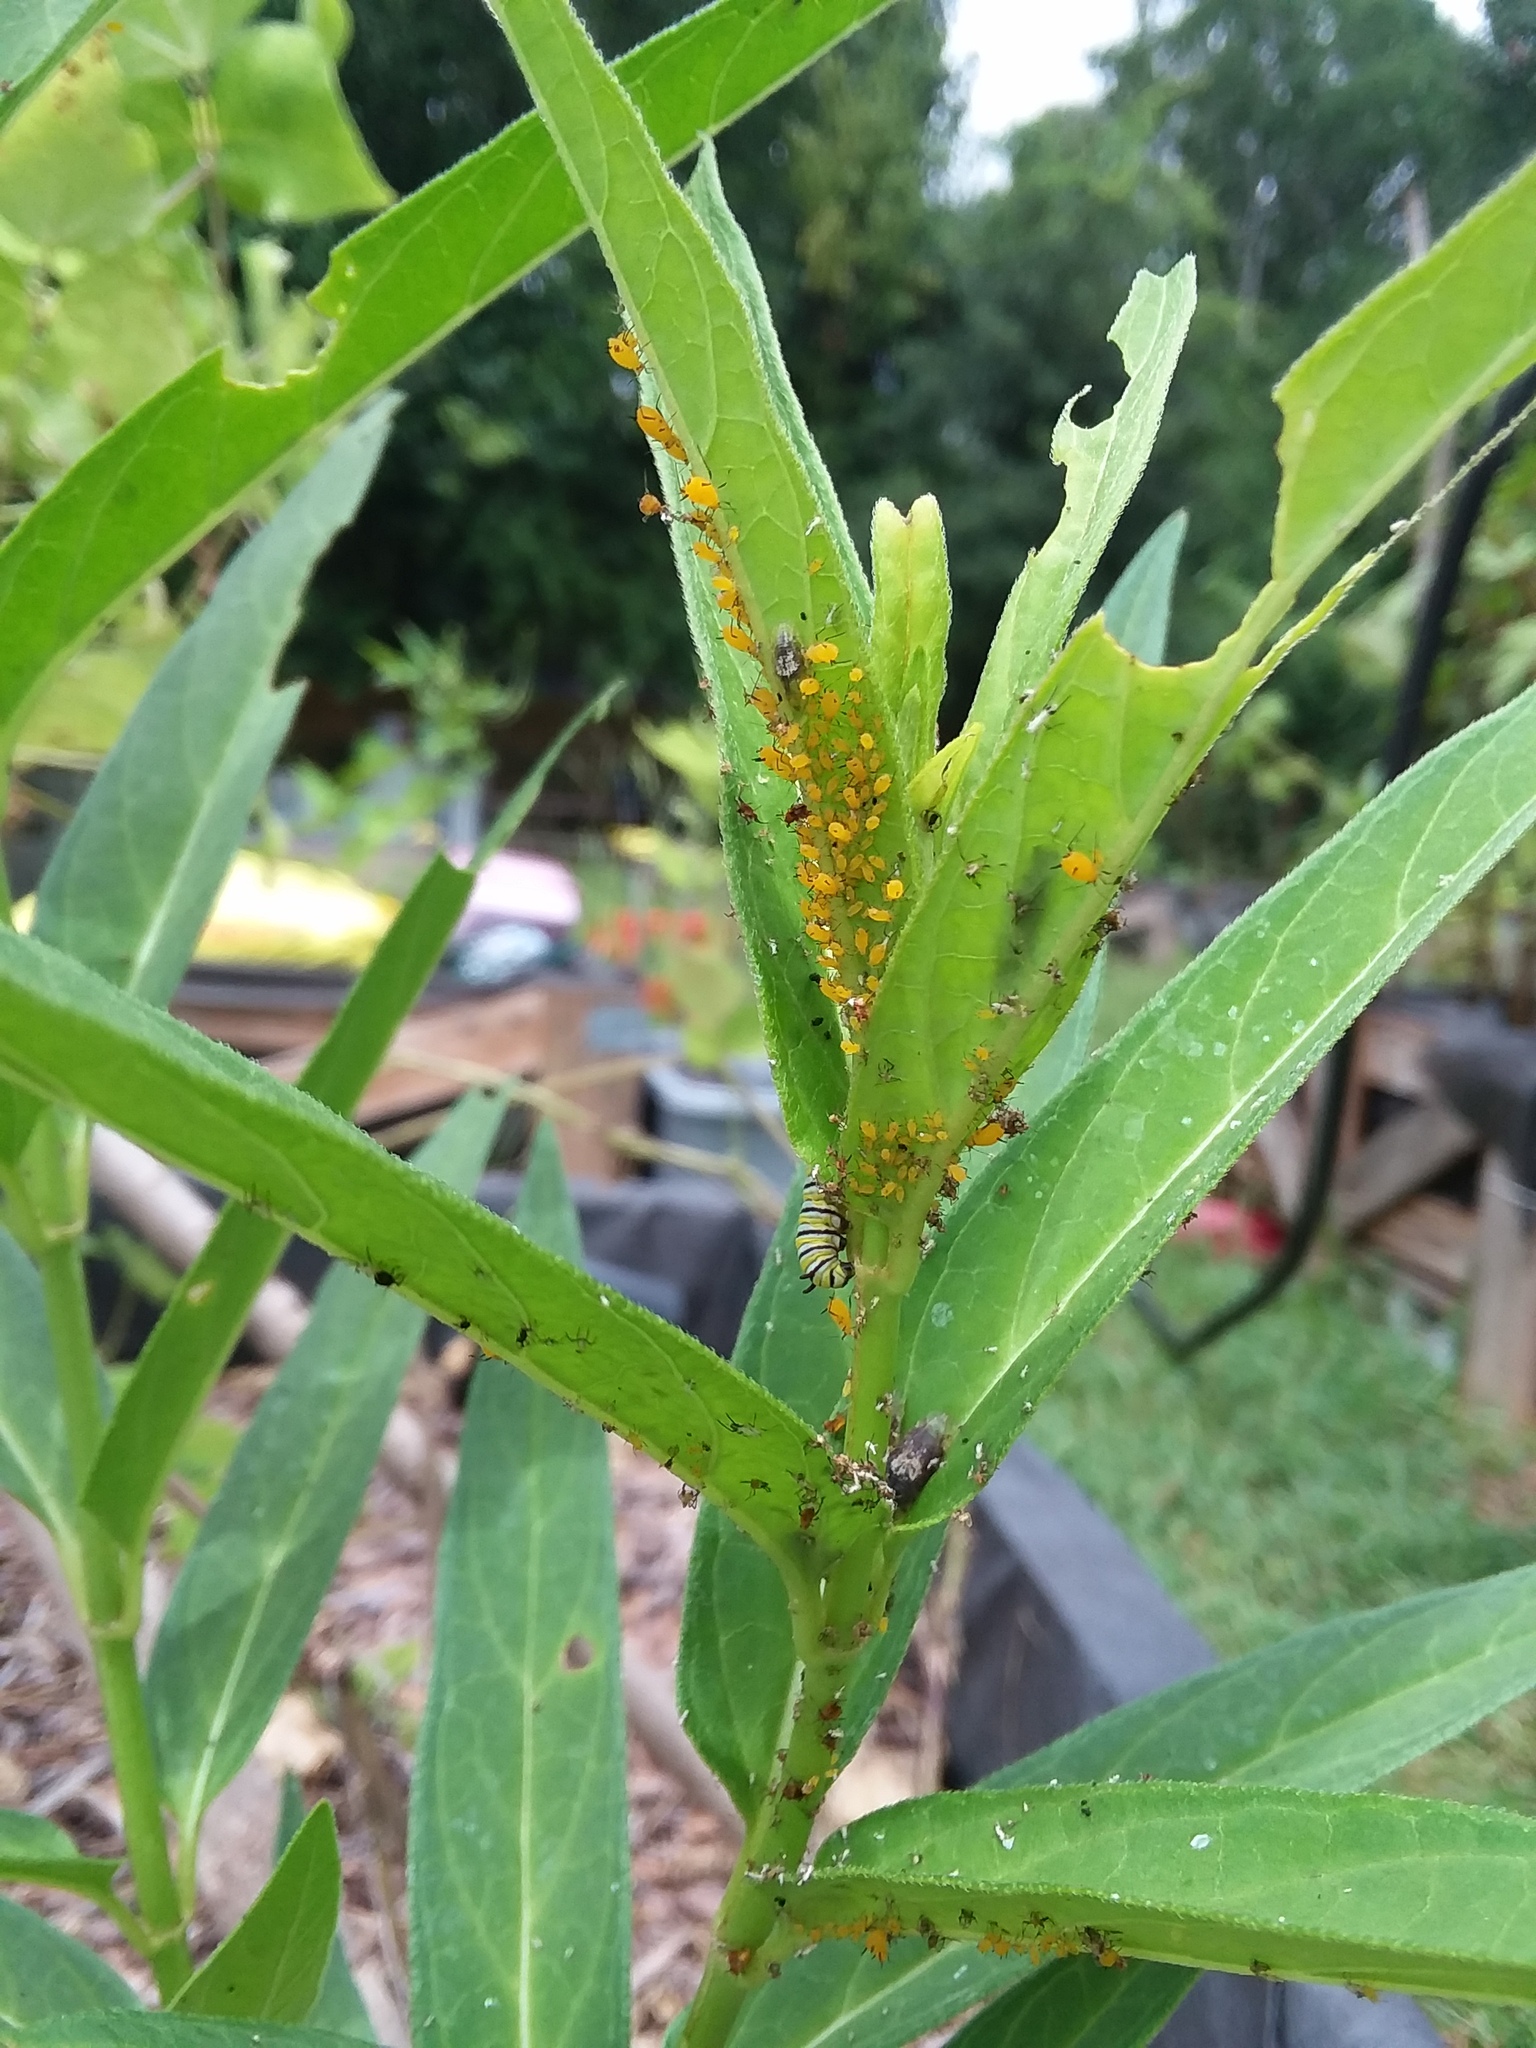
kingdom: Animalia
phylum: Arthropoda
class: Insecta
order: Lepidoptera
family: Nymphalidae
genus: Danaus
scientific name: Danaus plexippus
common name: Monarch
